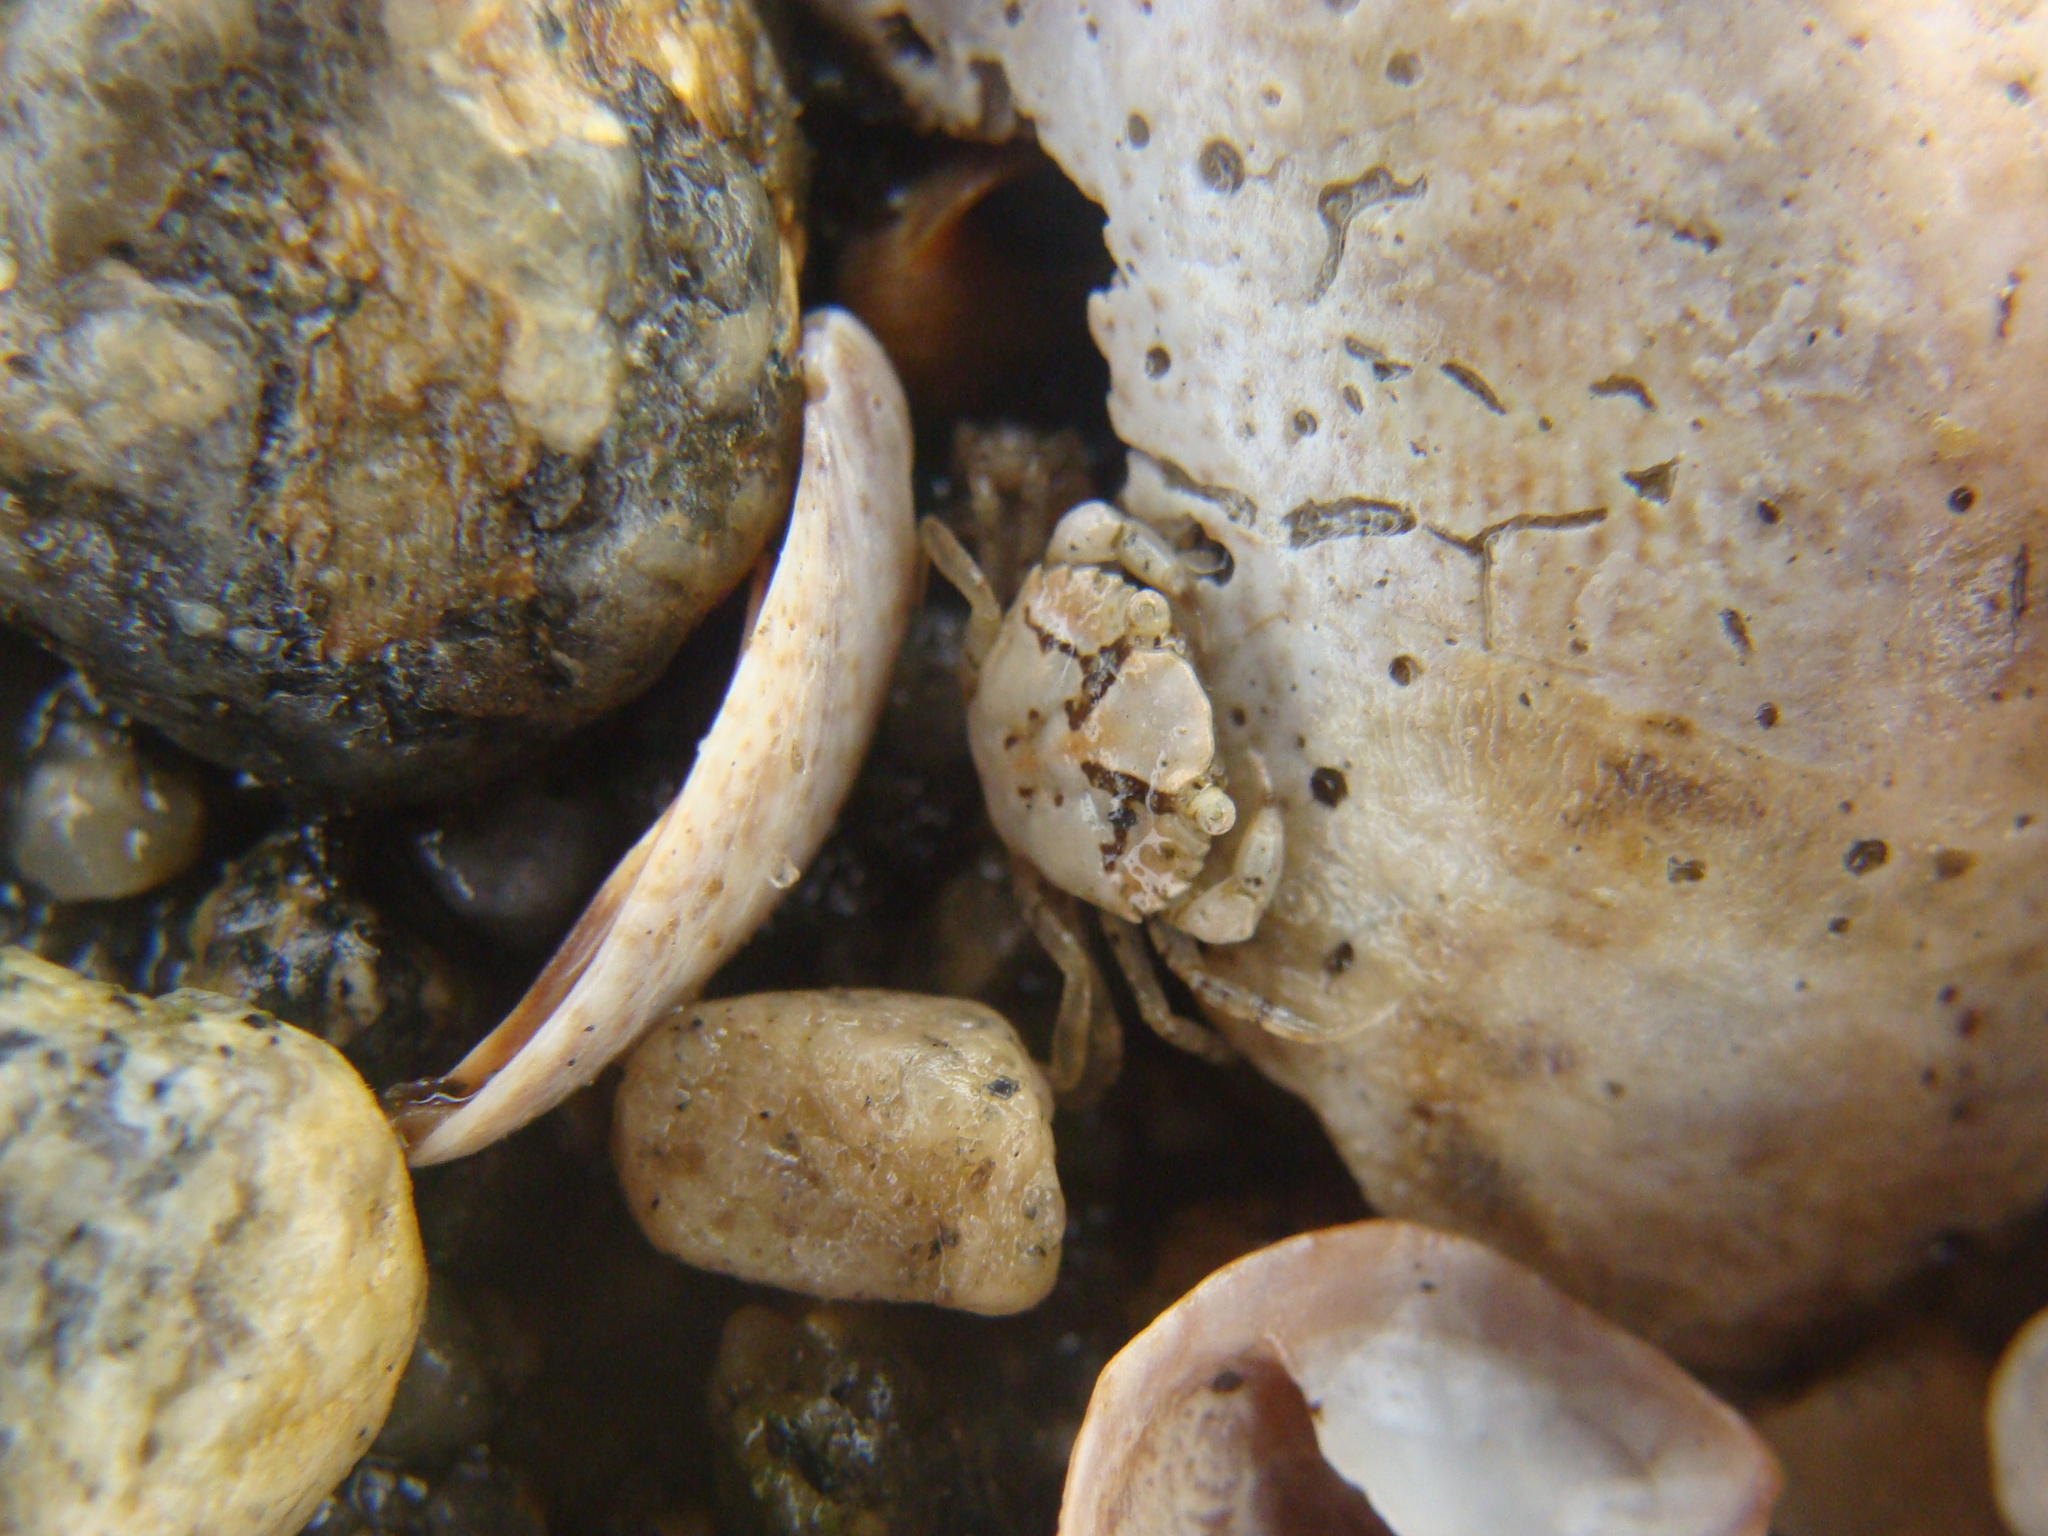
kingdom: Animalia
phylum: Arthropoda
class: Malacostraca
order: Decapoda
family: Carcinidae
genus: Carcinus
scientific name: Carcinus maenas
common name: European green crab
